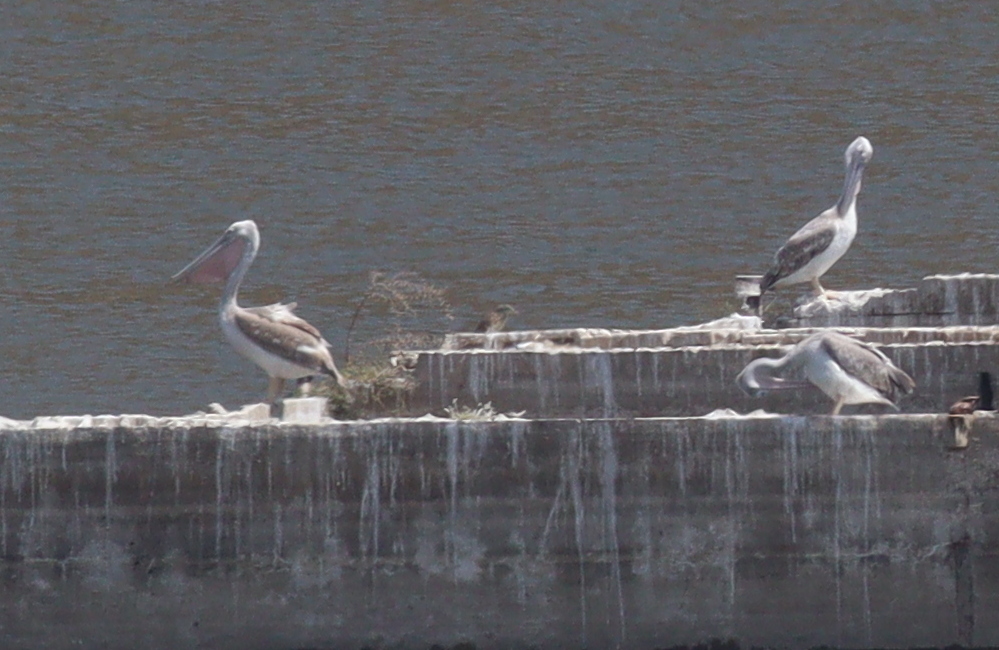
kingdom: Animalia
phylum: Chordata
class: Aves
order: Pelecaniformes
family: Pelecanidae
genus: Pelecanus
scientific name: Pelecanus rufescens
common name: Pink-backed pelican
